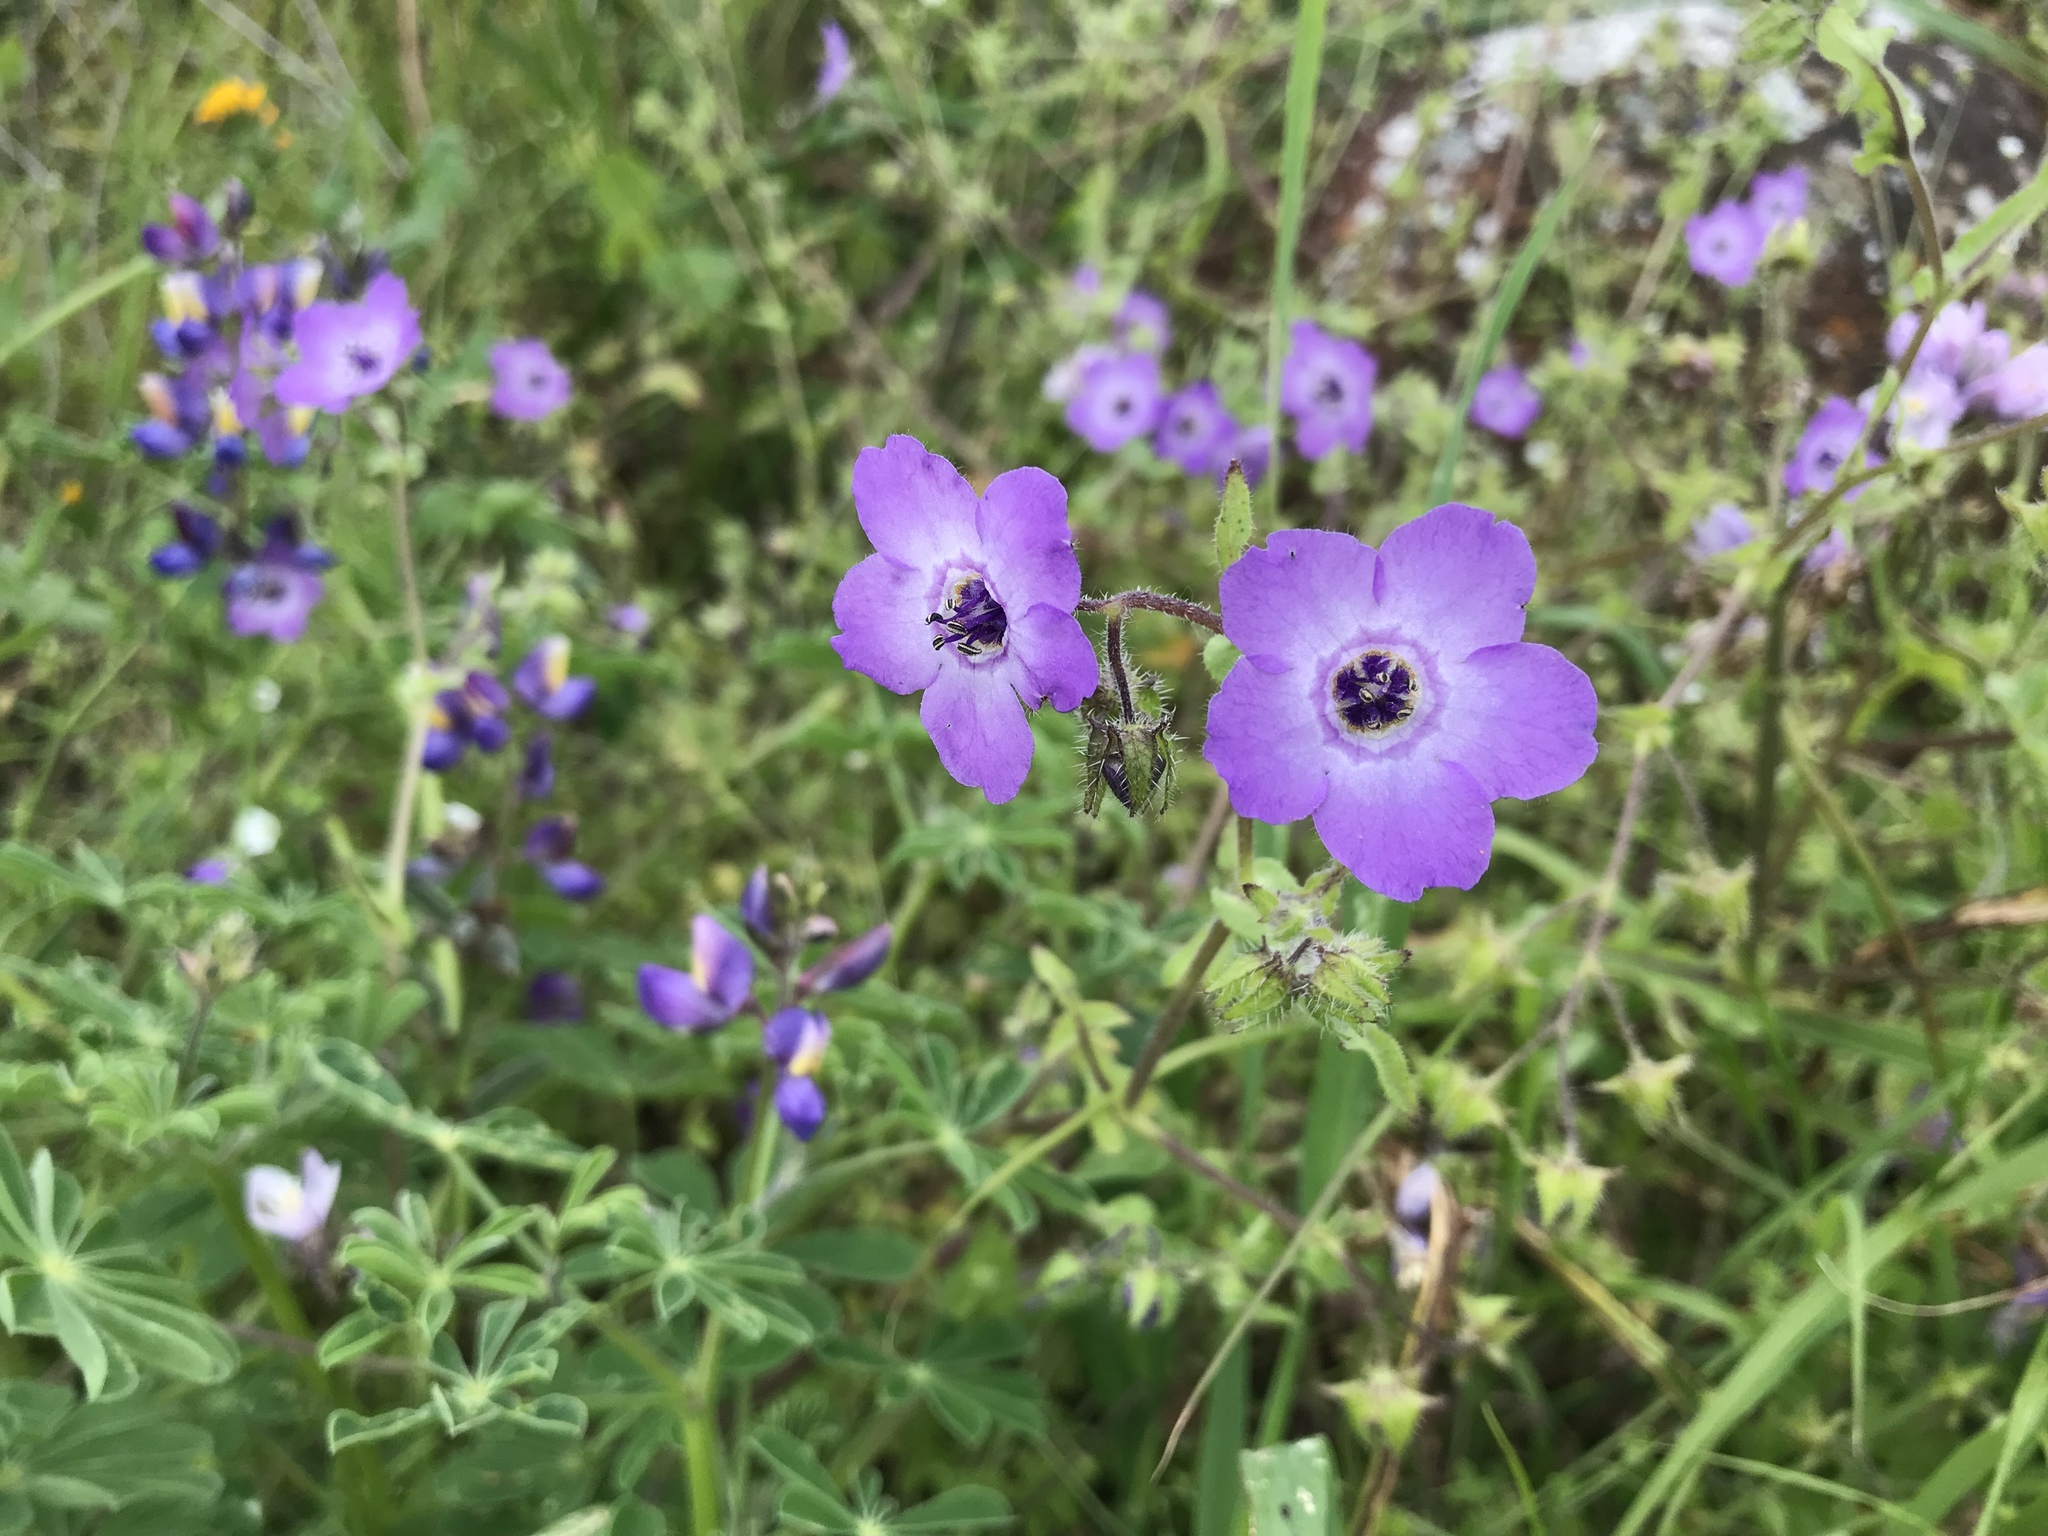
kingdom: Plantae
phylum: Tracheophyta
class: Magnoliopsida
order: Boraginales
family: Hydrophyllaceae
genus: Pholistoma
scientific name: Pholistoma auritum
